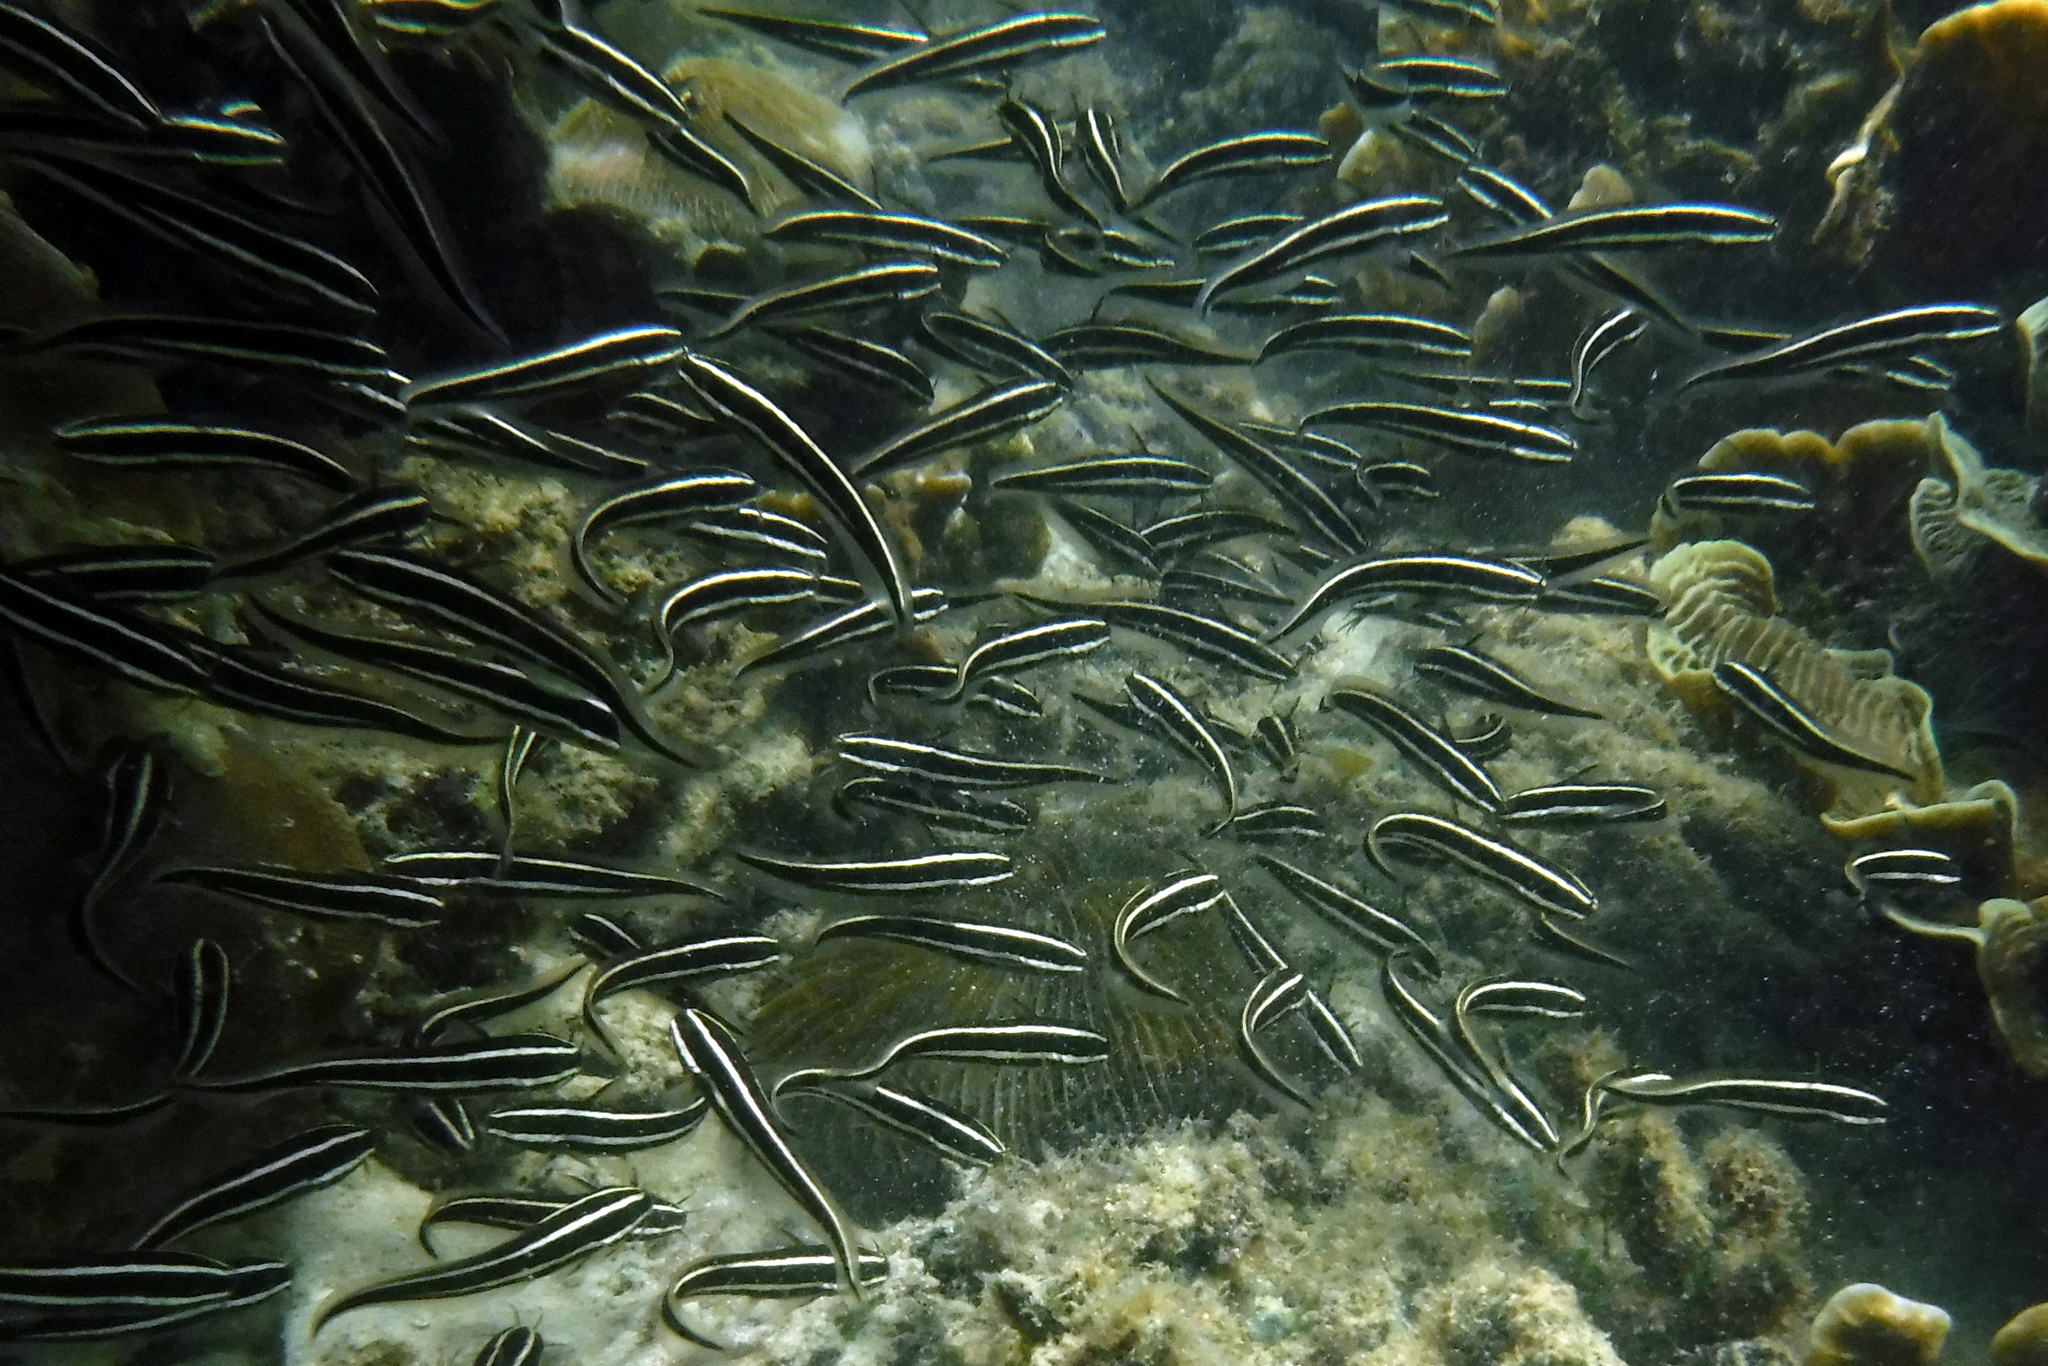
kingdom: Animalia
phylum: Chordata
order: Siluriformes
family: Plotosidae
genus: Plotosus
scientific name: Plotosus lineatus
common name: Striped eel catfish
